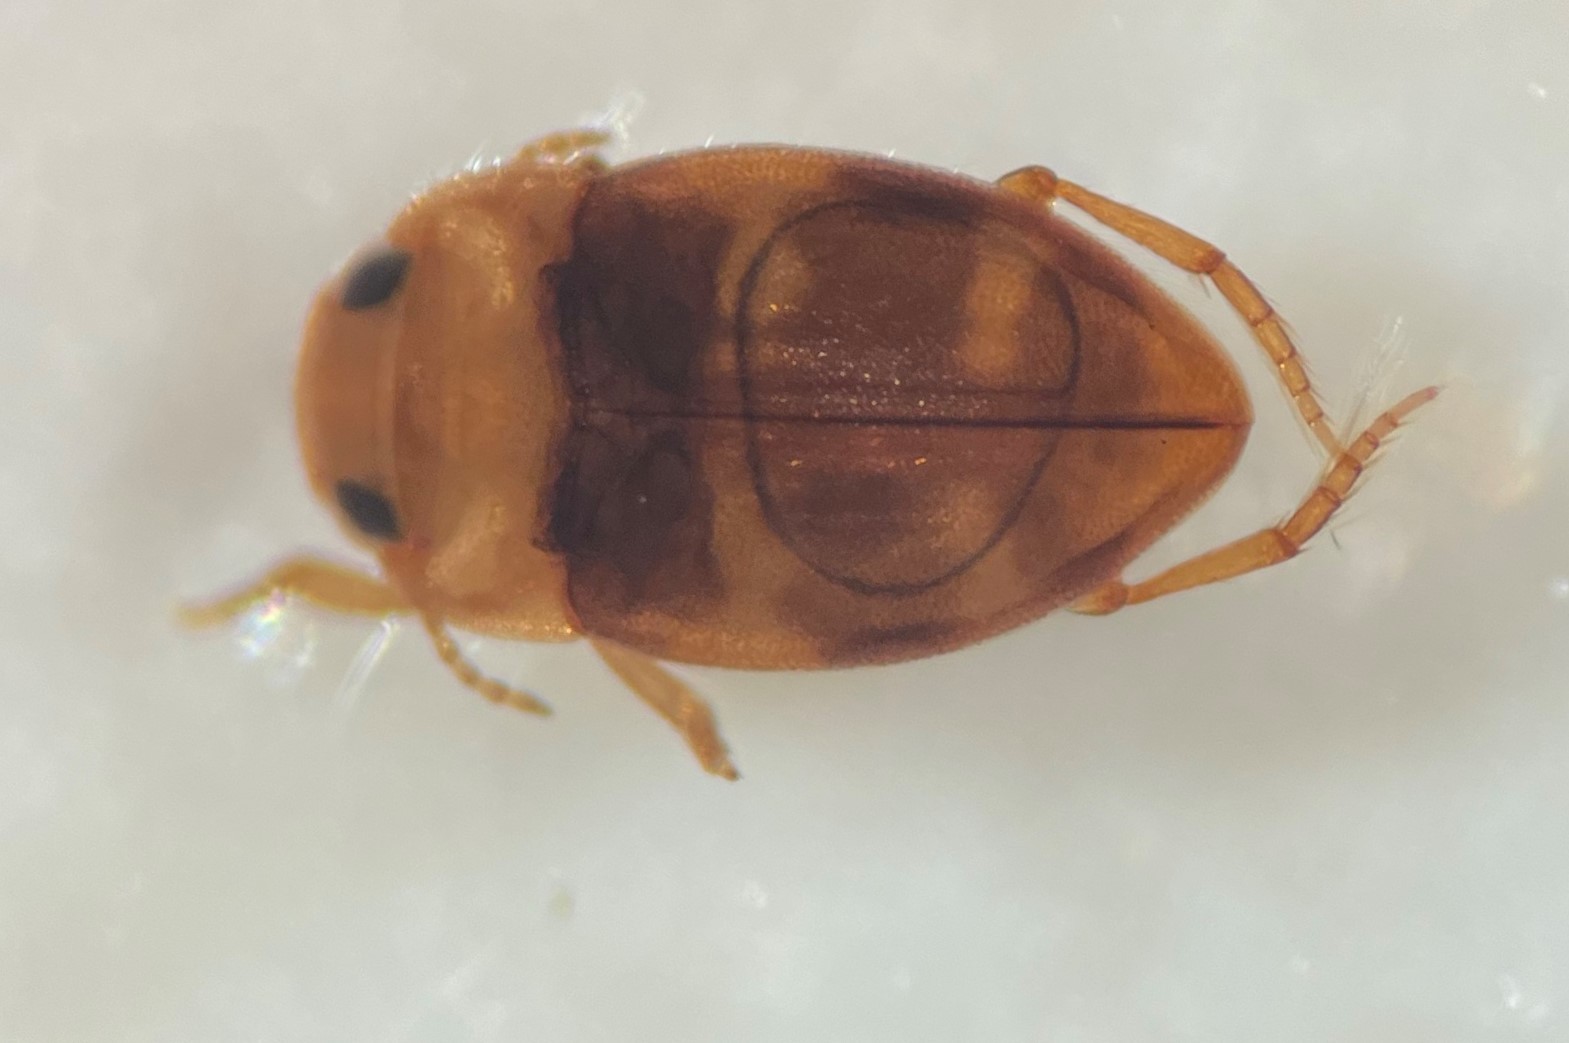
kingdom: Animalia
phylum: Arthropoda
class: Insecta
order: Coleoptera
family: Dytiscidae
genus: Liodessus
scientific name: Liodessus flavicollis
